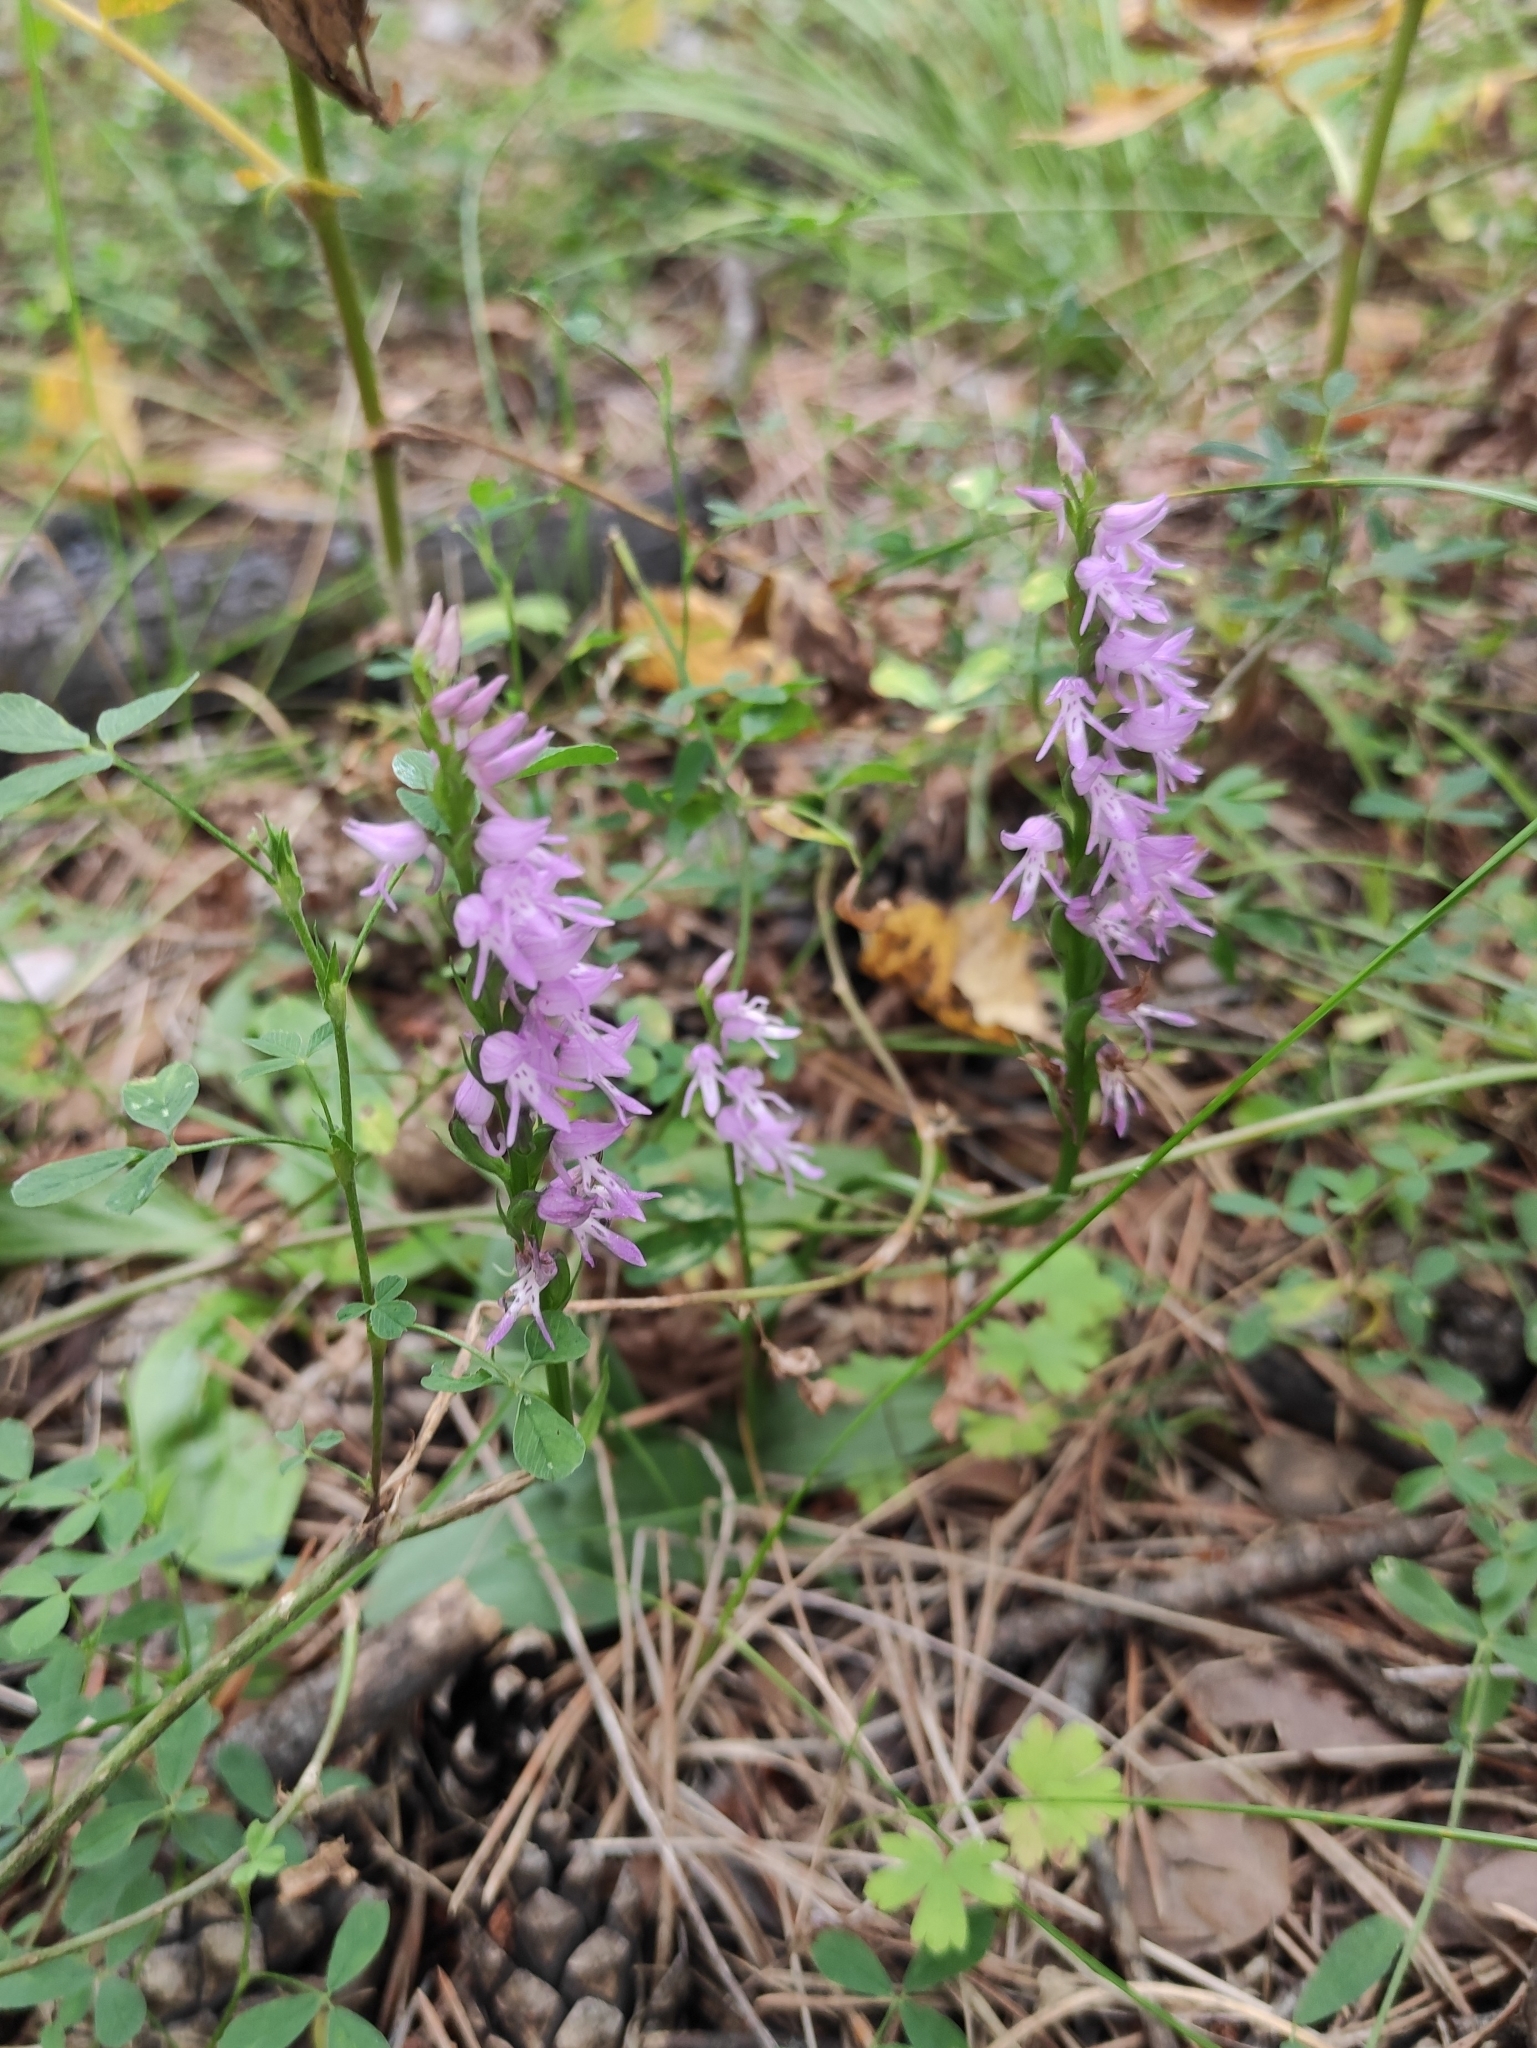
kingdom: Plantae
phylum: Tracheophyta
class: Liliopsida
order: Asparagales
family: Orchidaceae
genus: Hemipilia
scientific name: Hemipilia cucullata
